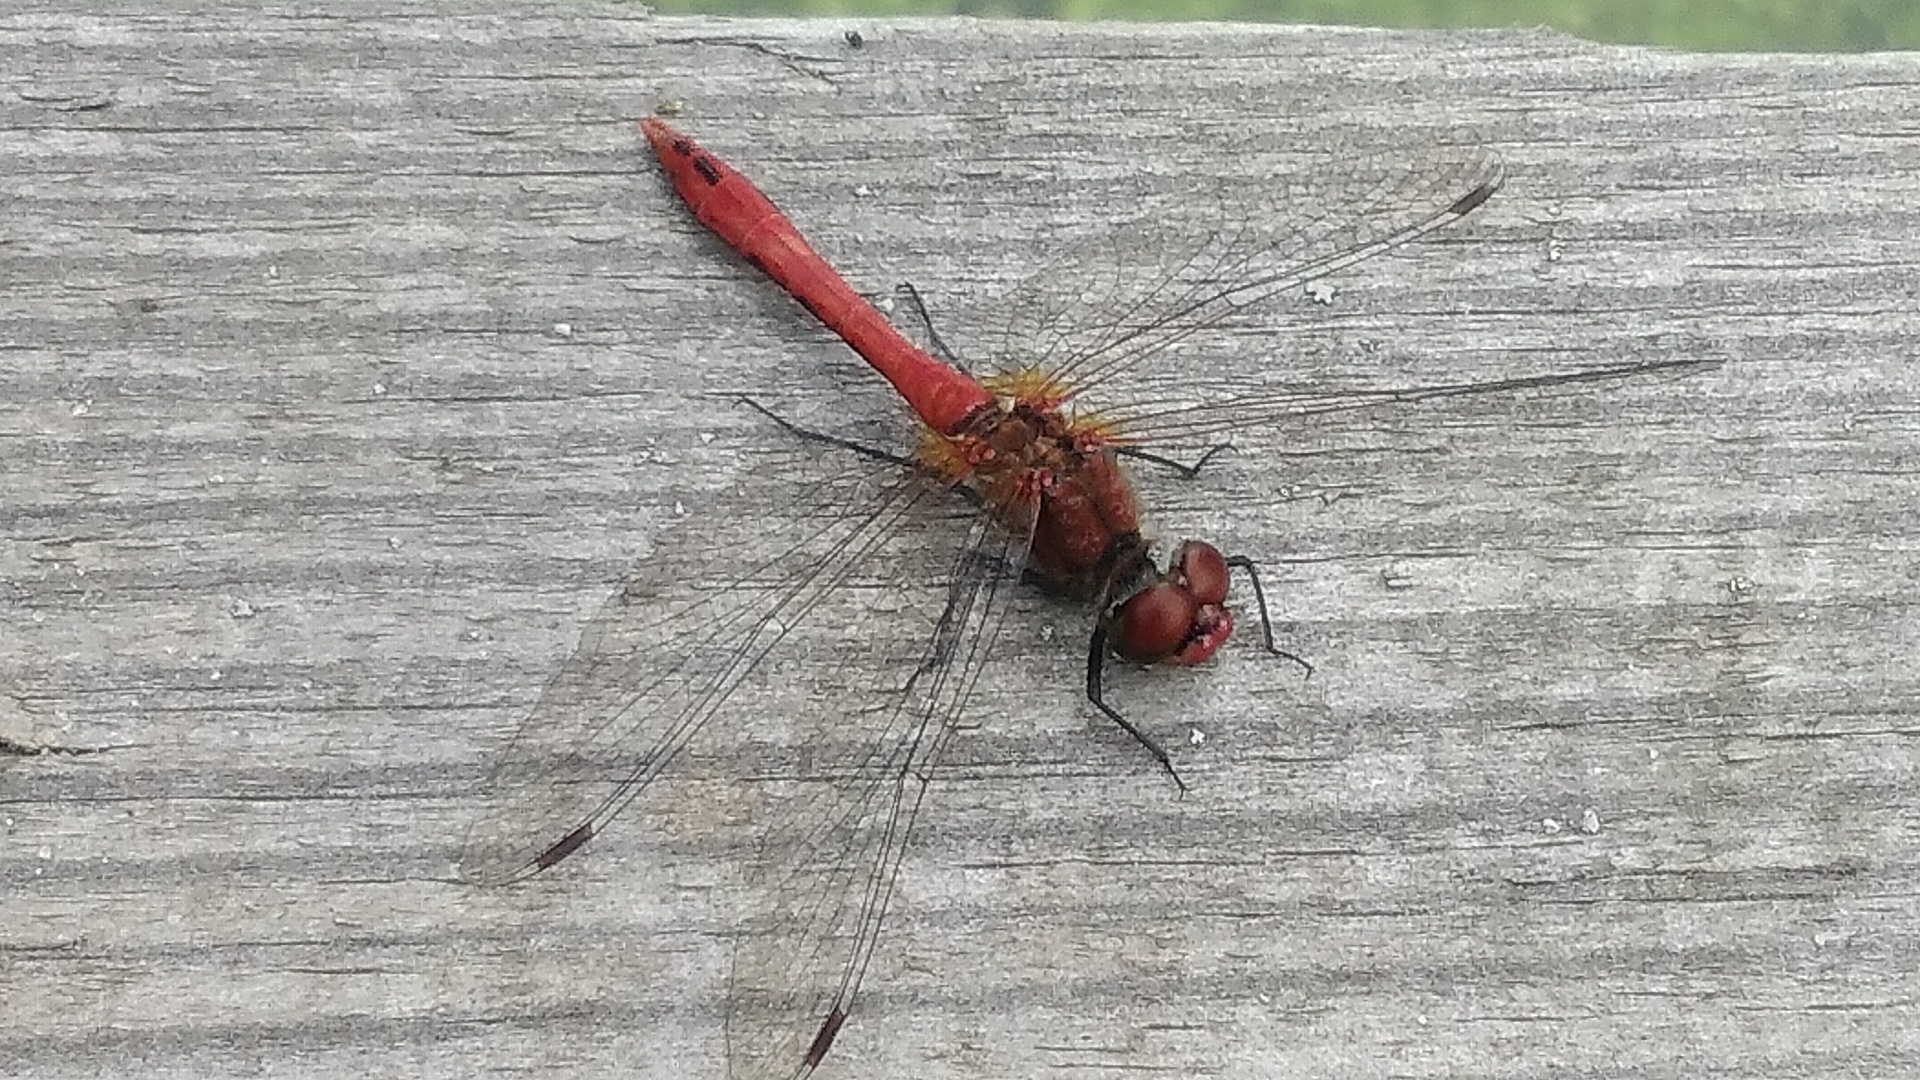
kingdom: Animalia
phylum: Arthropoda
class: Insecta
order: Odonata
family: Libellulidae
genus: Sympetrum
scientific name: Sympetrum sanguineum
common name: Ruddy darter
